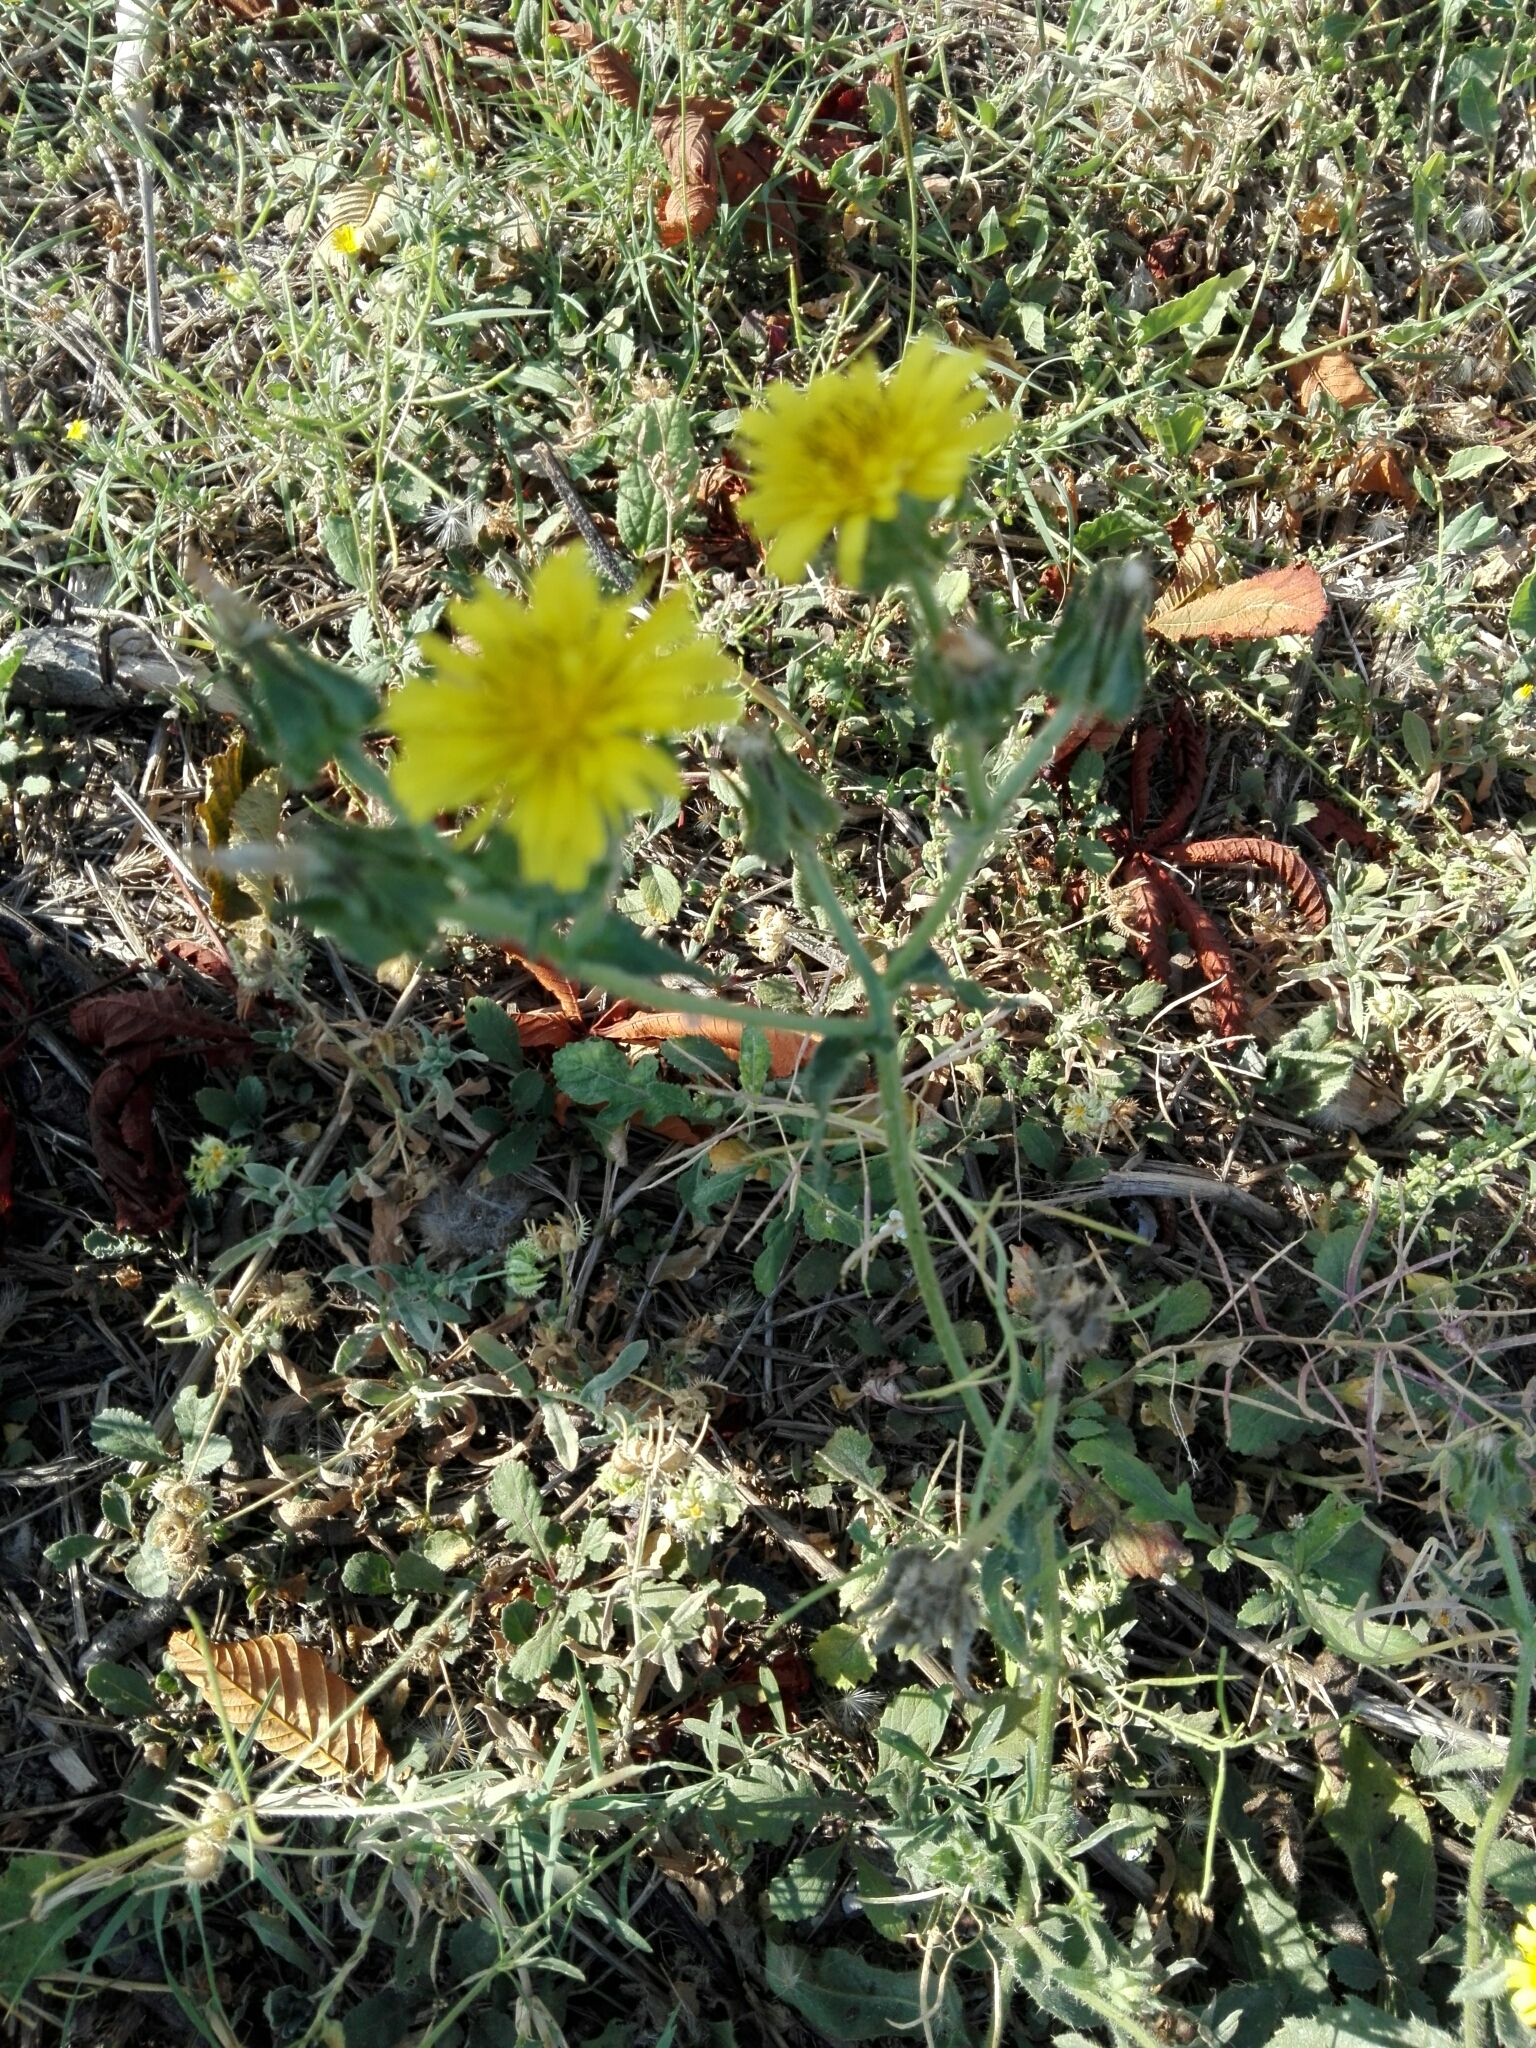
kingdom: Plantae
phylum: Tracheophyta
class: Magnoliopsida
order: Asterales
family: Asteraceae
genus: Helminthotheca
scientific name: Helminthotheca echioides
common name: Ox-tongue
